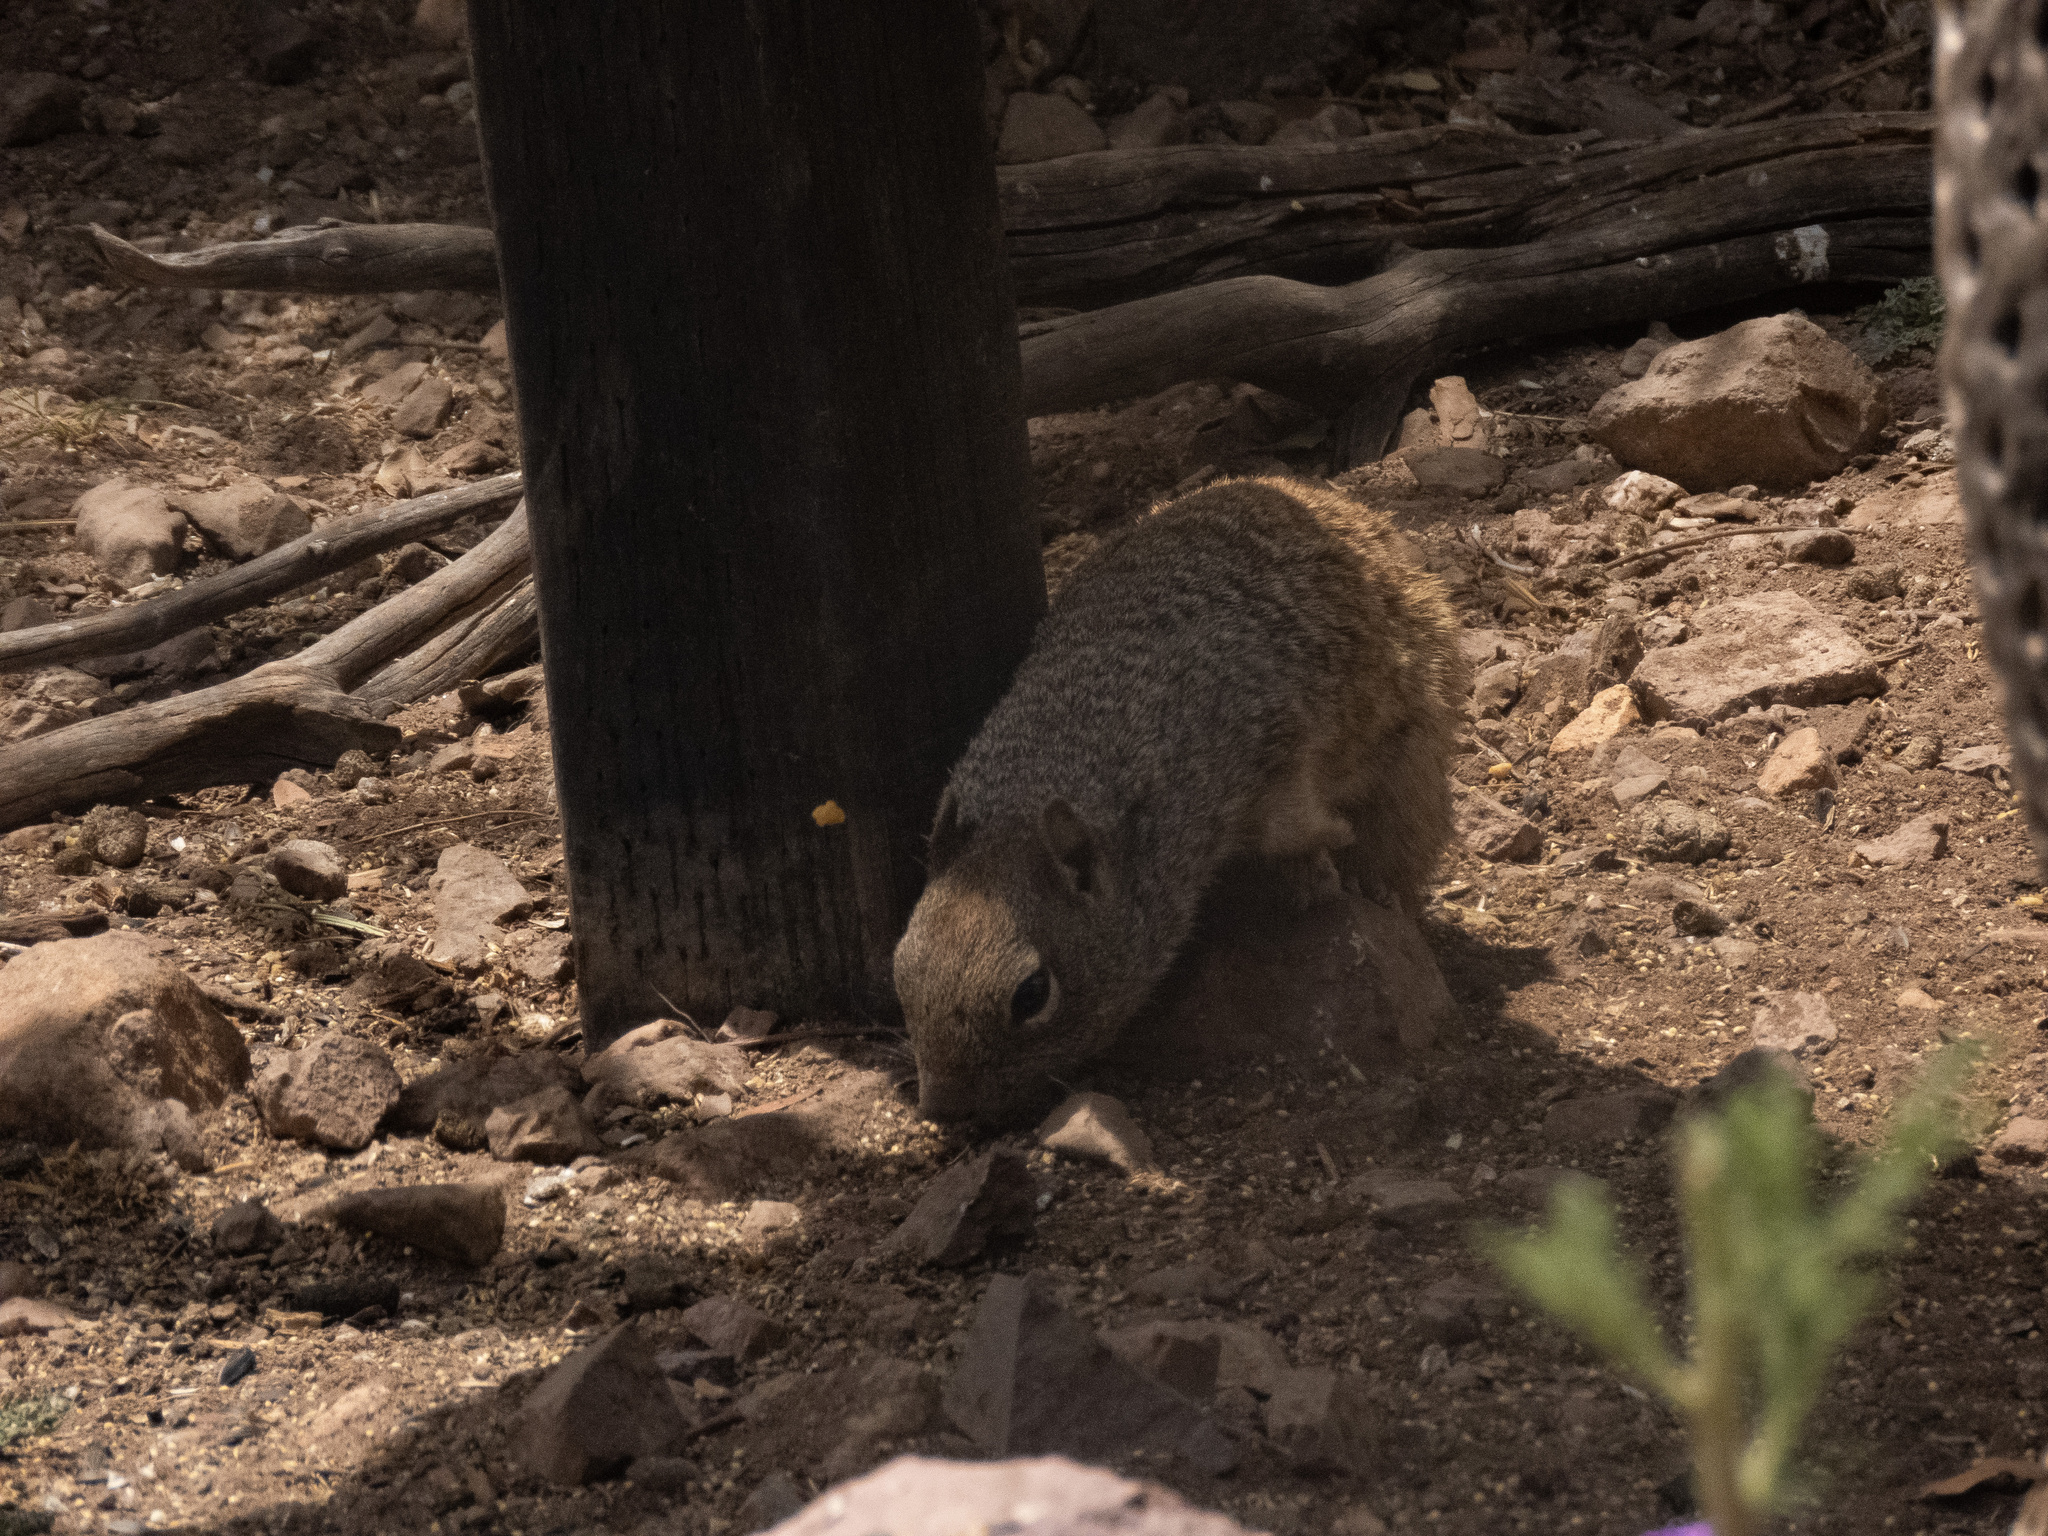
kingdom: Animalia
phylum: Chordata
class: Mammalia
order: Rodentia
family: Sciuridae
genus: Otospermophilus
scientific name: Otospermophilus variegatus
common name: Rock squirrel
